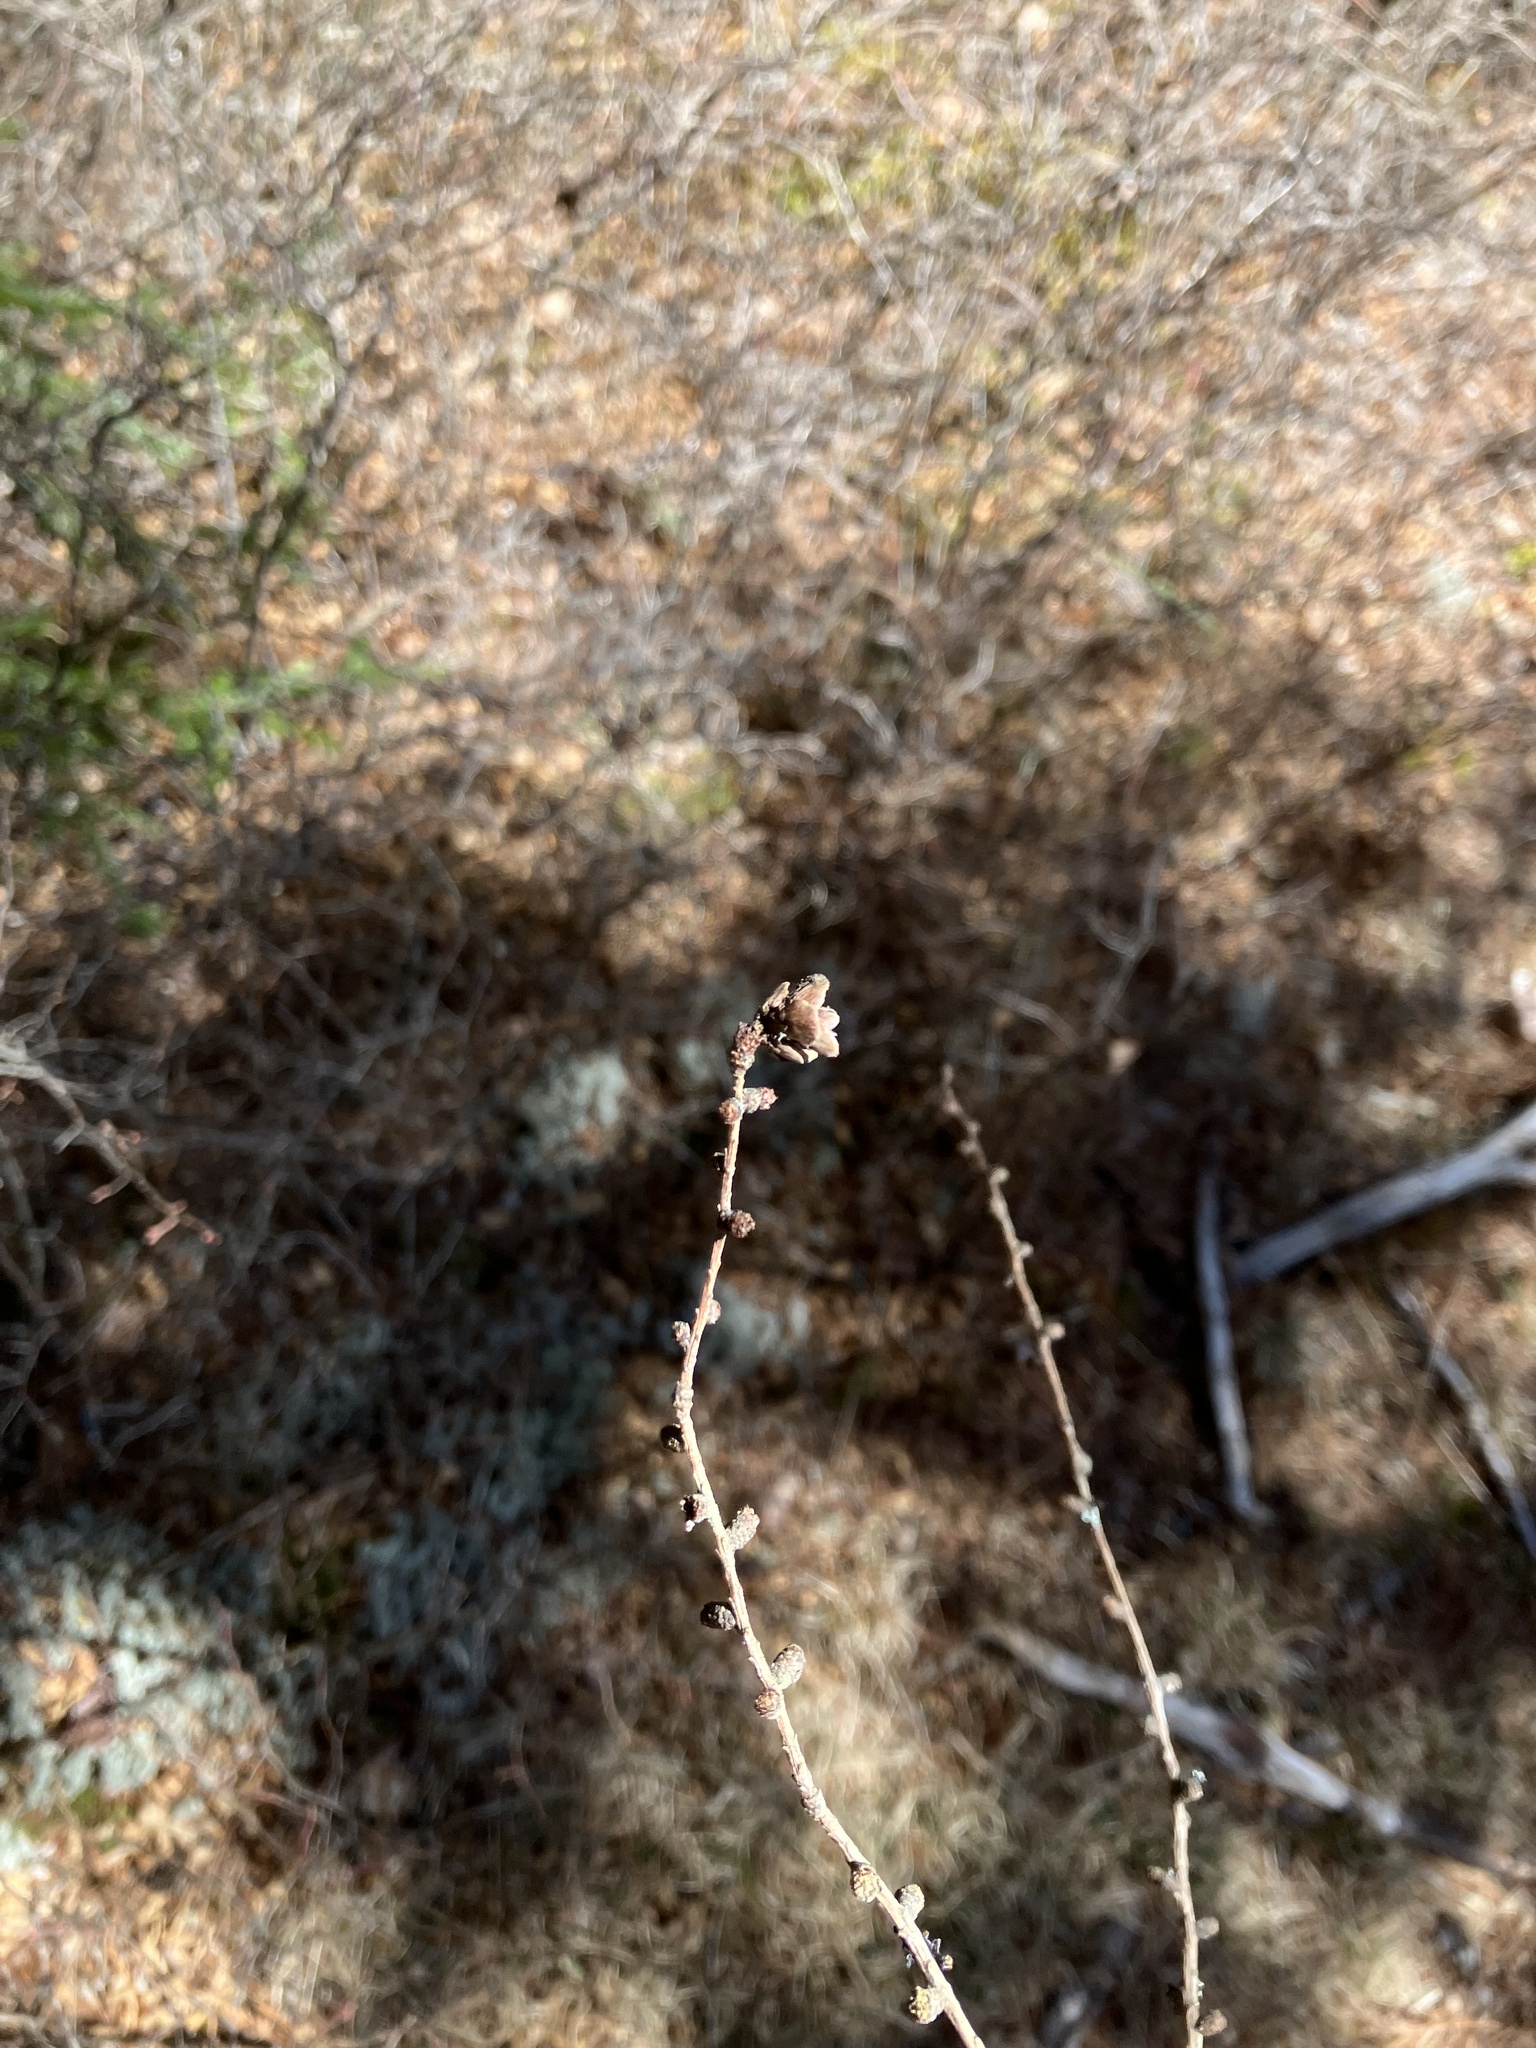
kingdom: Plantae
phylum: Tracheophyta
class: Pinopsida
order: Pinales
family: Pinaceae
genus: Larix
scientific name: Larix laricina
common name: American larch
